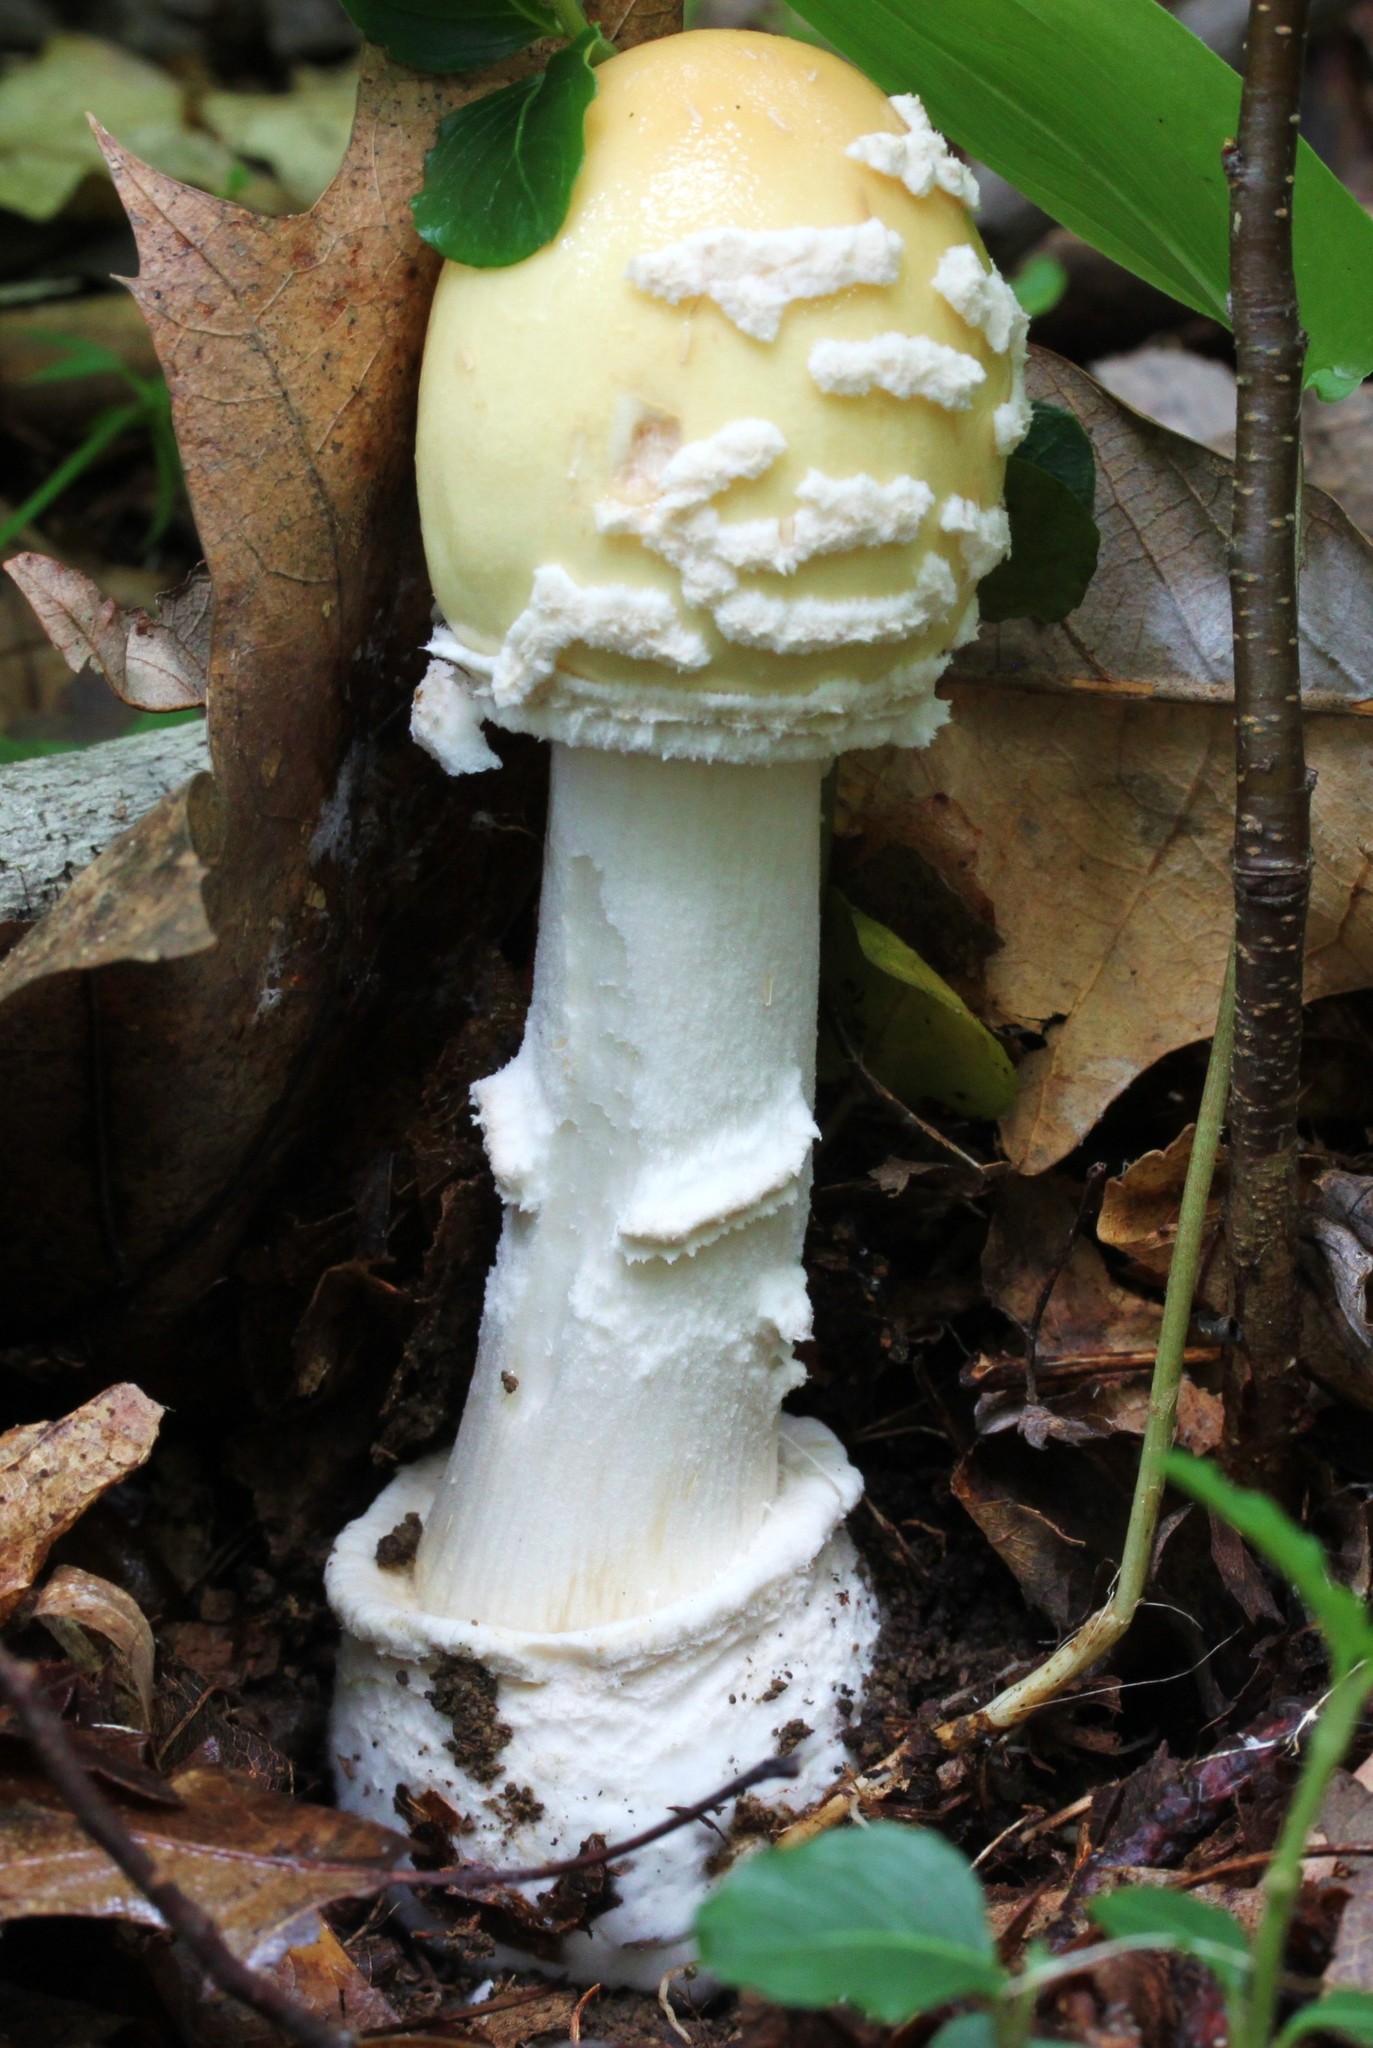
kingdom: Fungi
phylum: Basidiomycota
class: Agaricomycetes
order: Agaricales
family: Amanitaceae
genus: Amanita
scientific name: Amanita velatipes
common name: Great funnel-veil amanita
